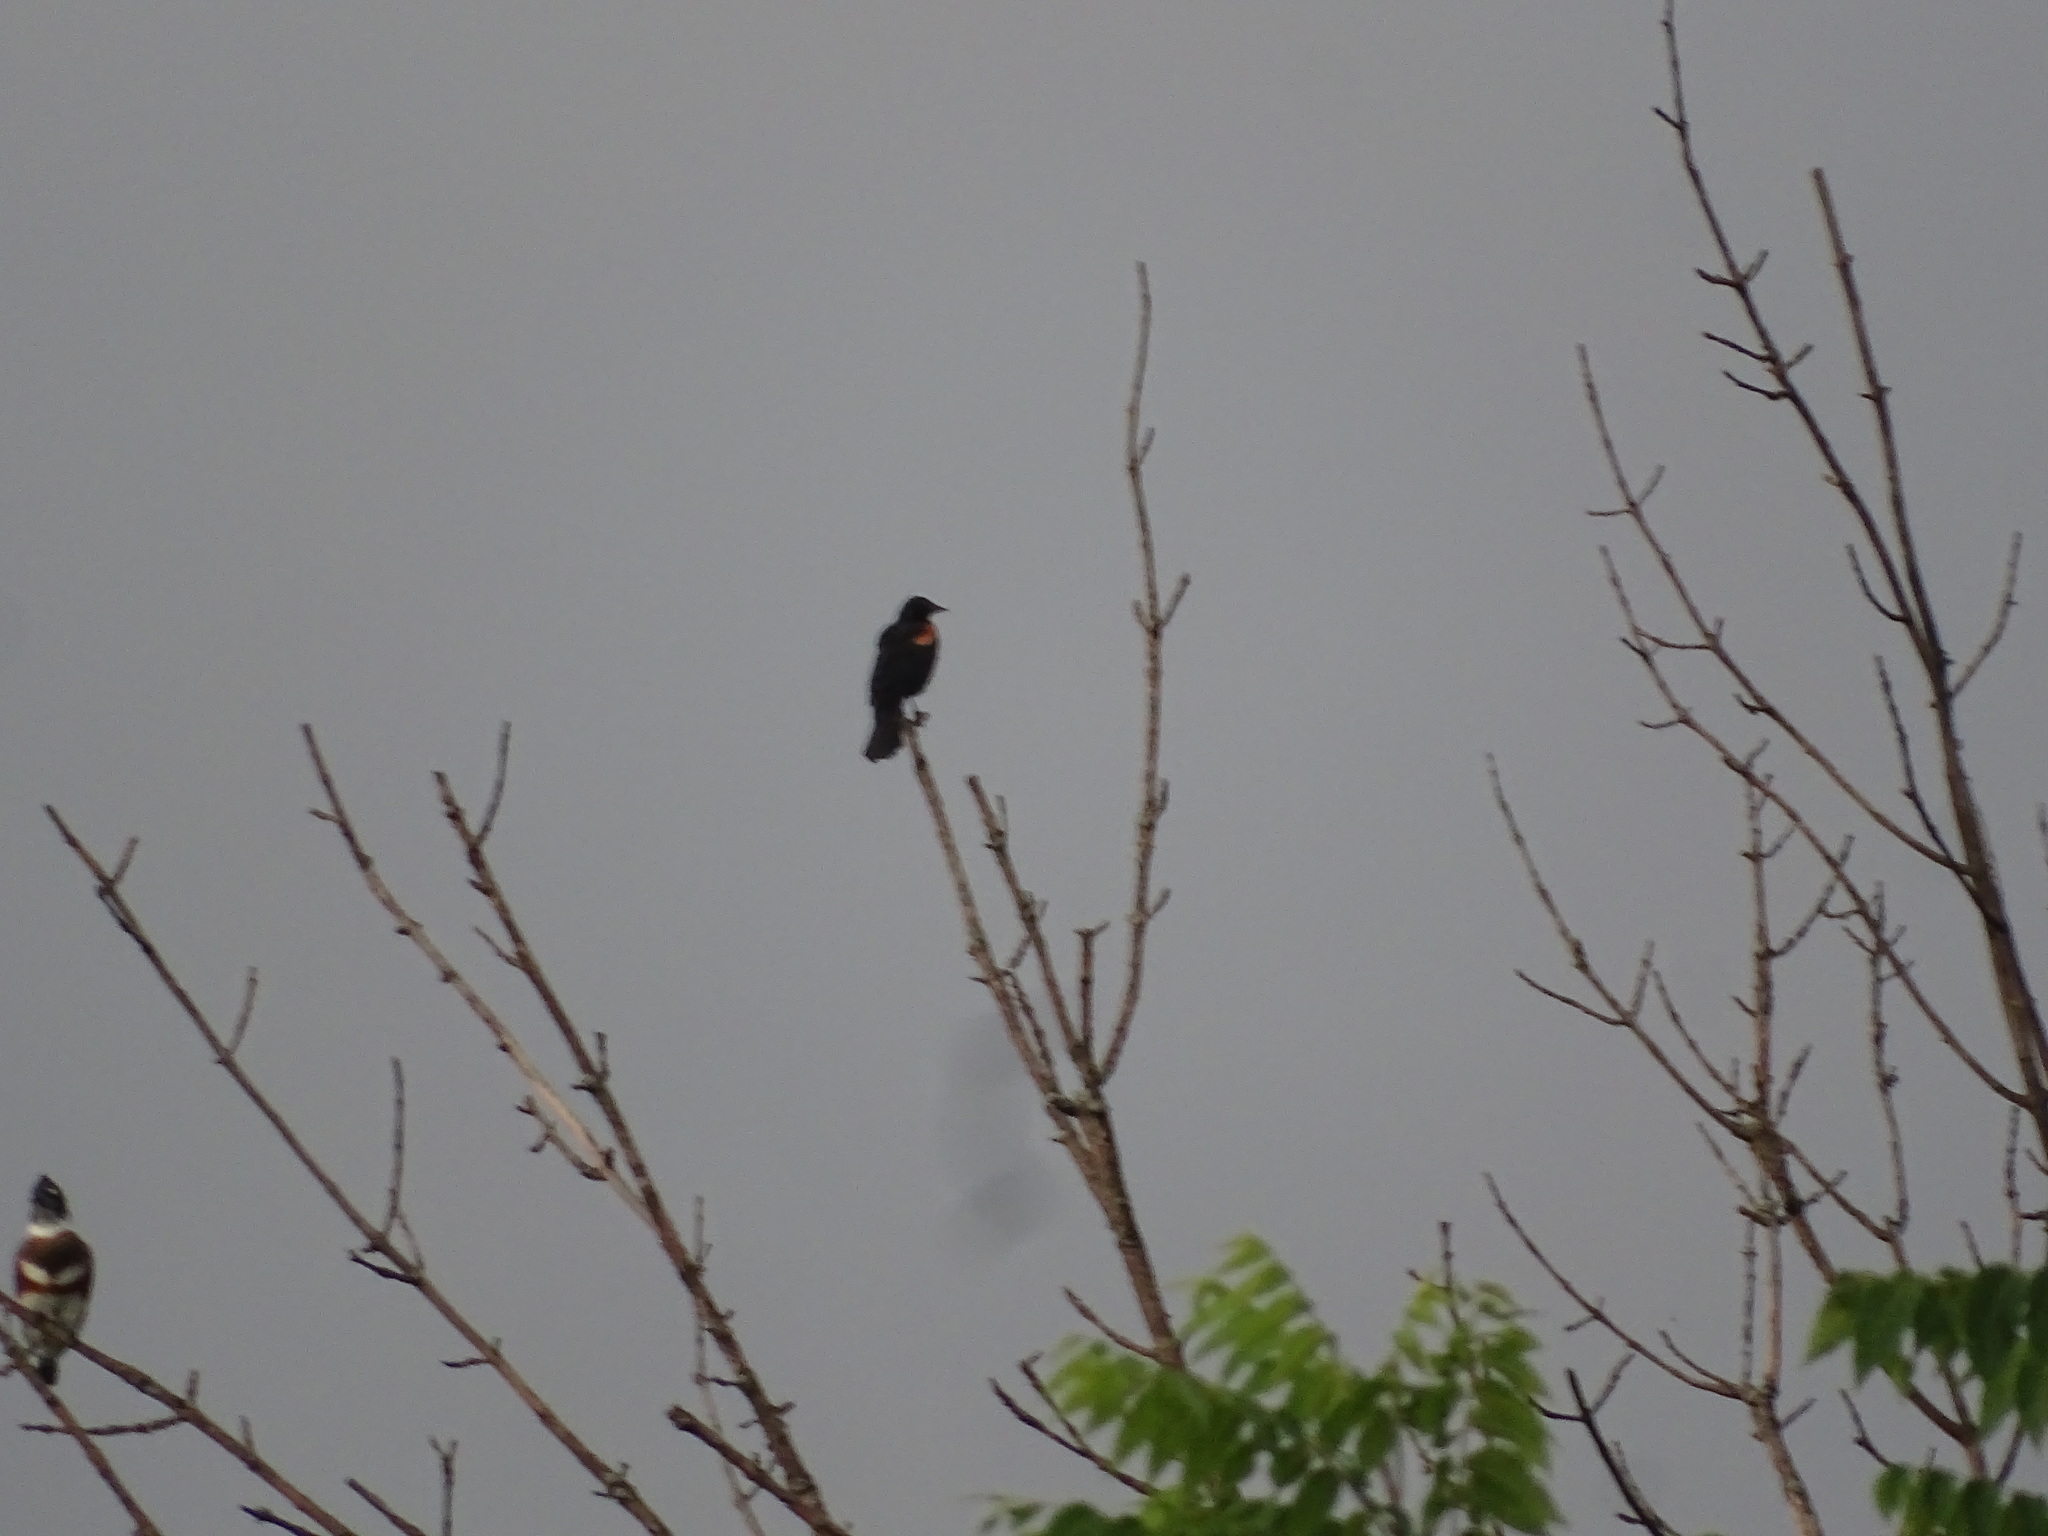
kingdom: Animalia
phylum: Chordata
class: Aves
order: Passeriformes
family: Icteridae
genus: Agelaius
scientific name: Agelaius phoeniceus
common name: Red-winged blackbird
